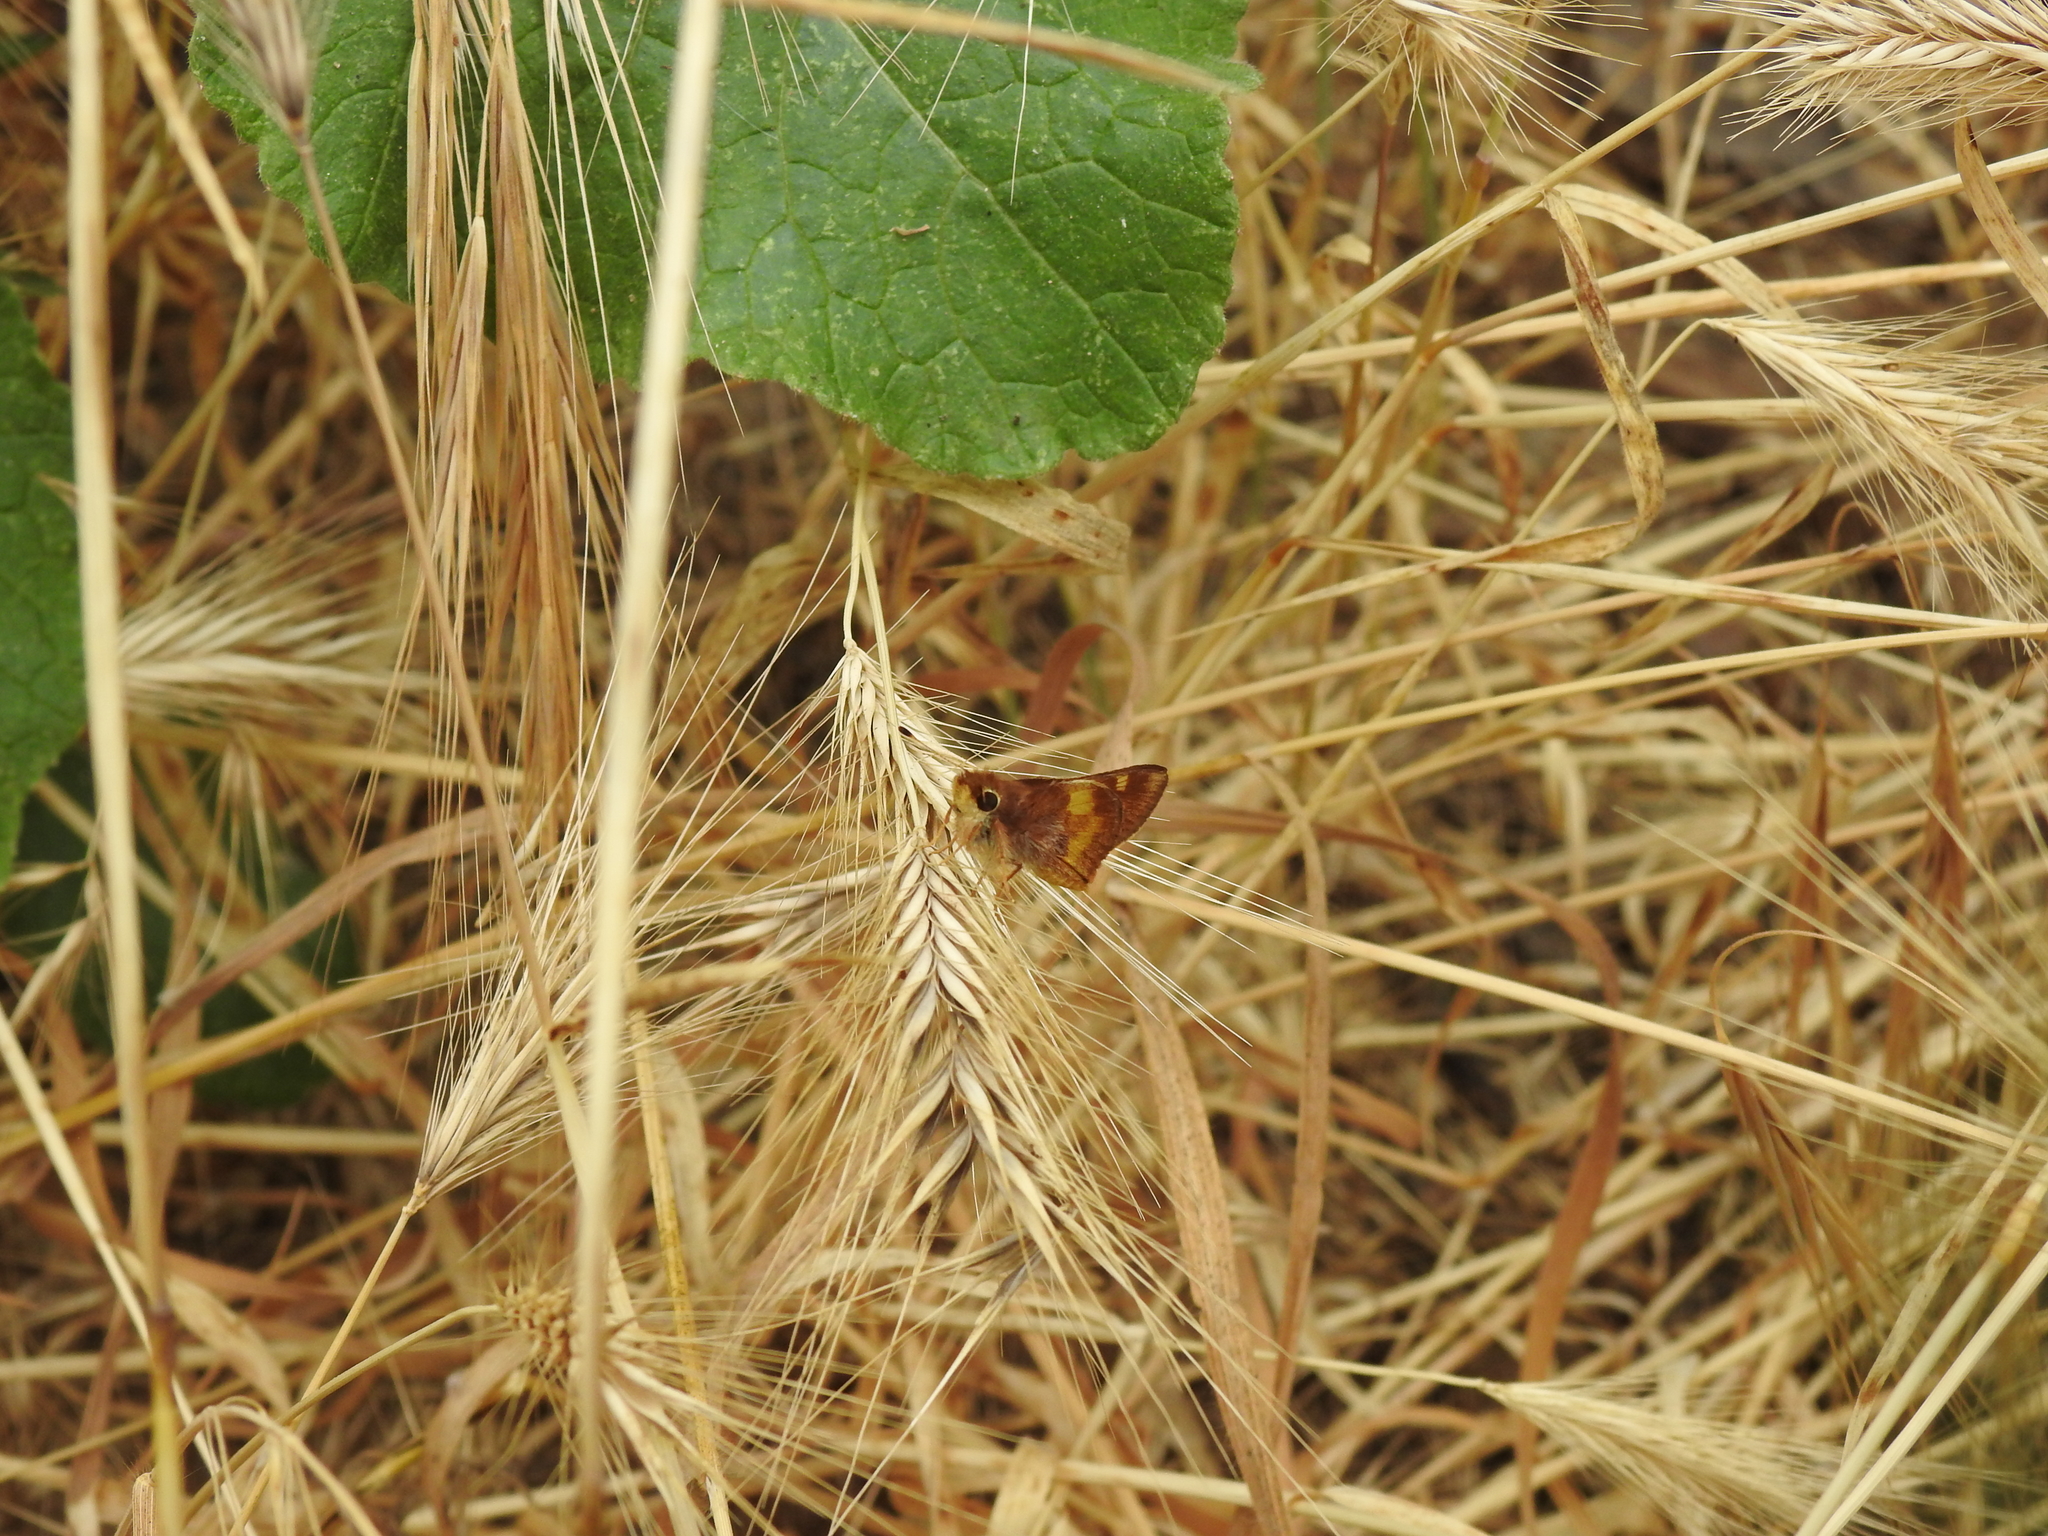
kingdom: Animalia
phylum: Arthropoda
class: Insecta
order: Lepidoptera
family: Hesperiidae
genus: Lon
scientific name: Lon melane
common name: Umber skipper
